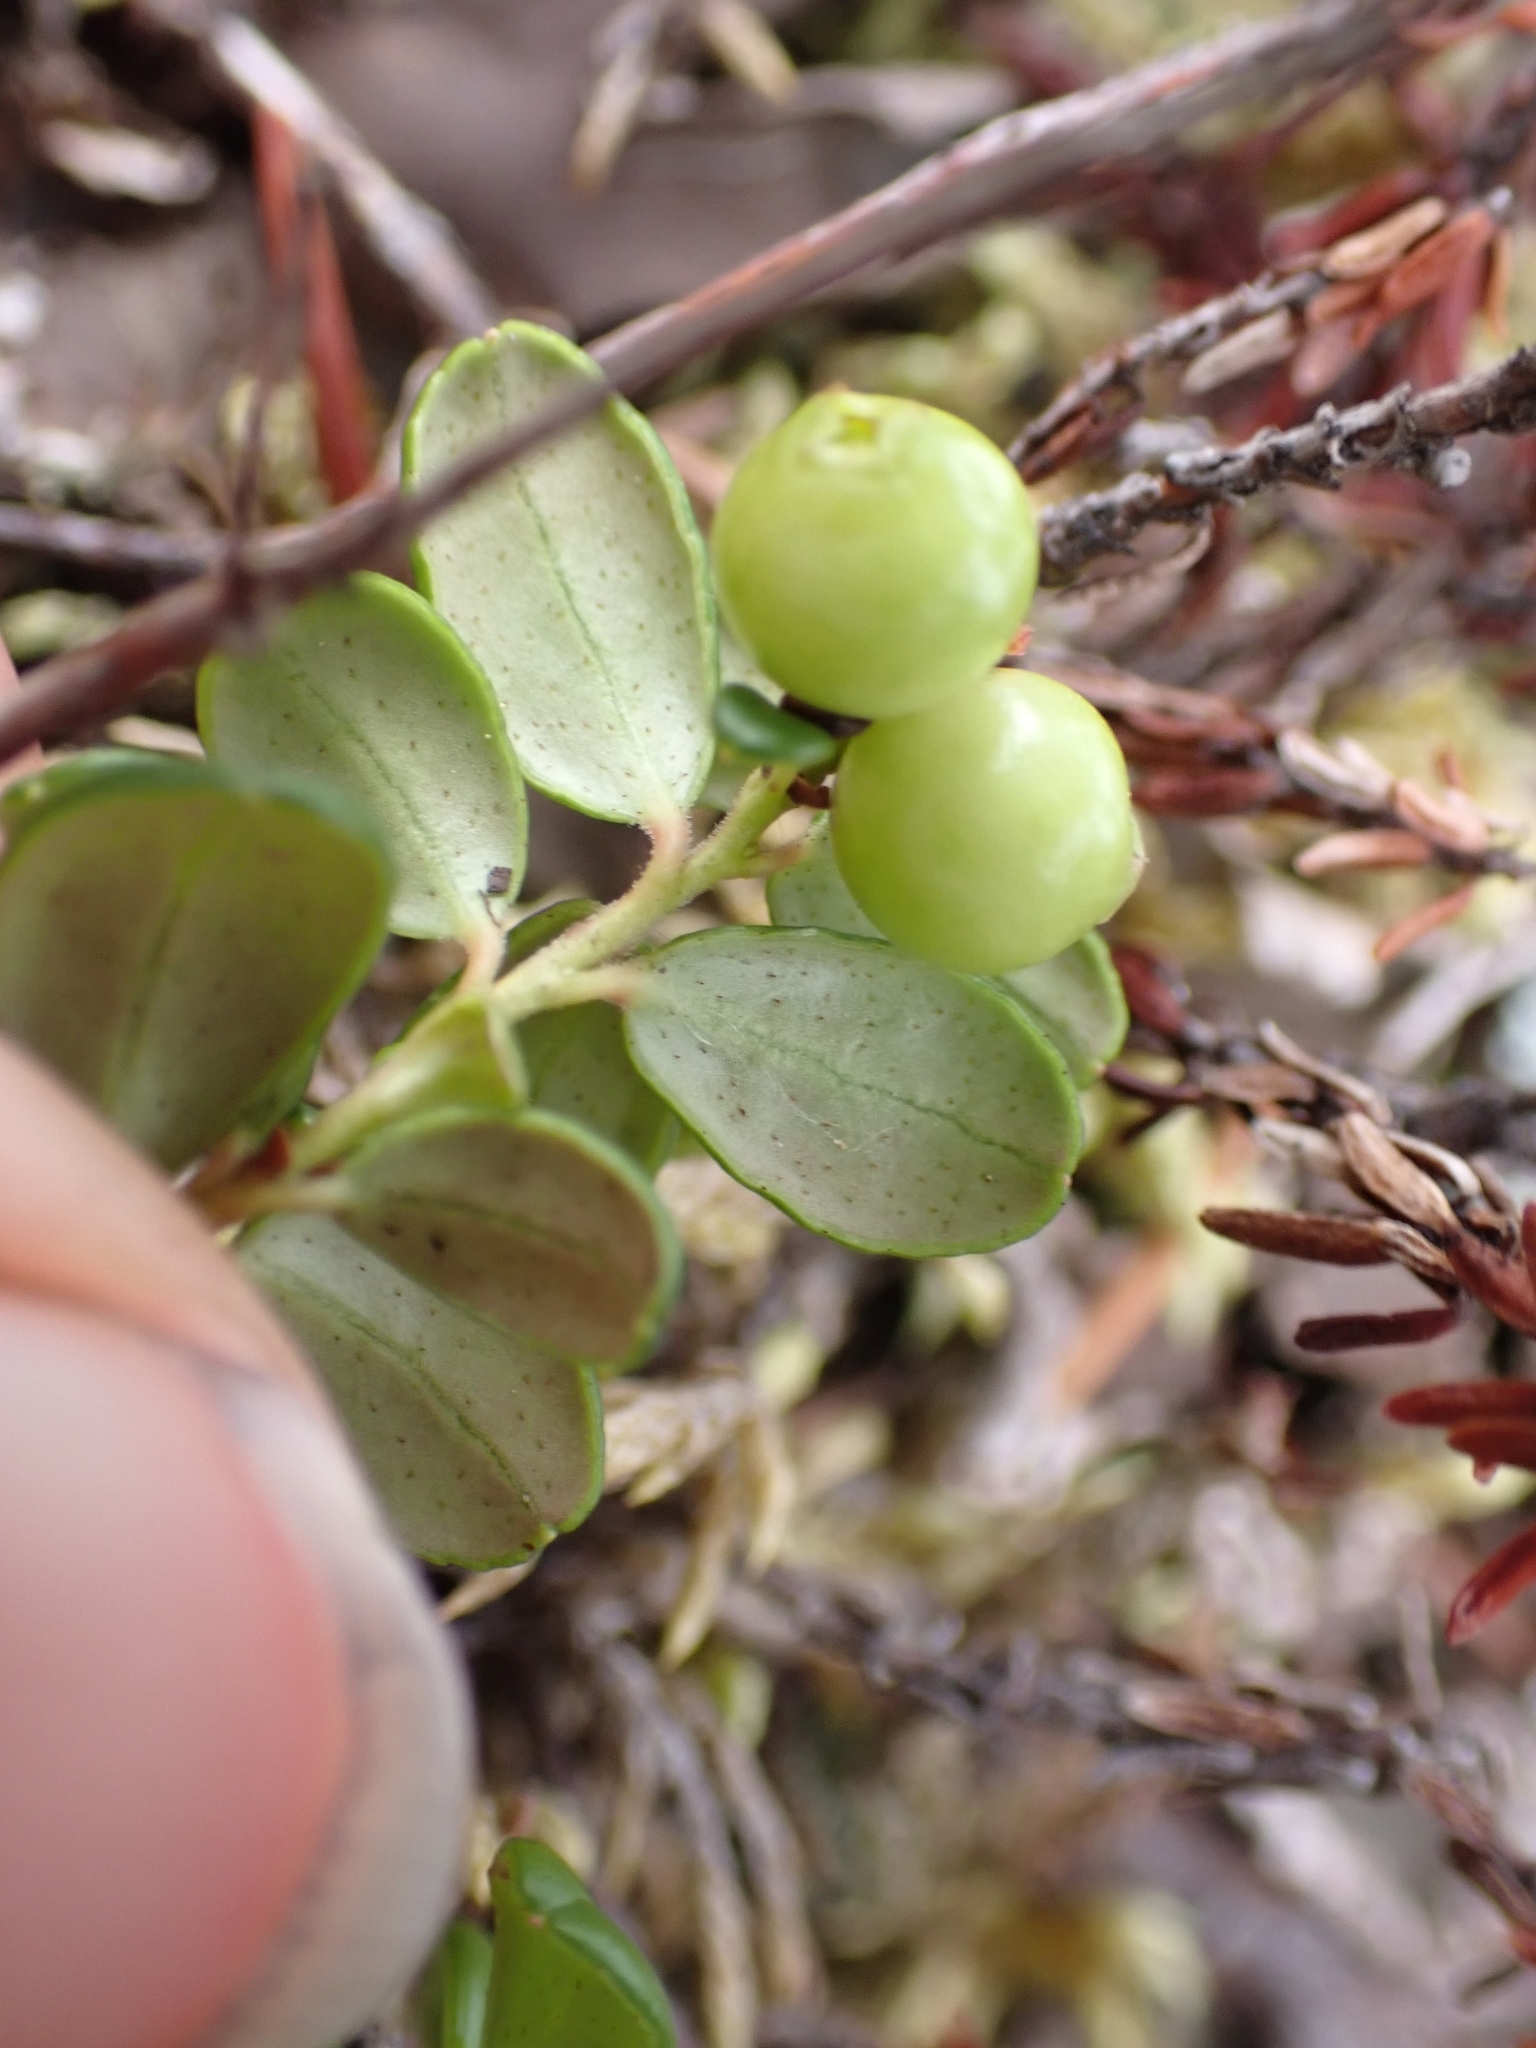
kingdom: Plantae
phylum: Tracheophyta
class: Magnoliopsida
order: Ericales
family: Ericaceae
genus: Vaccinium
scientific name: Vaccinium vitis-idaea
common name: Cowberry
